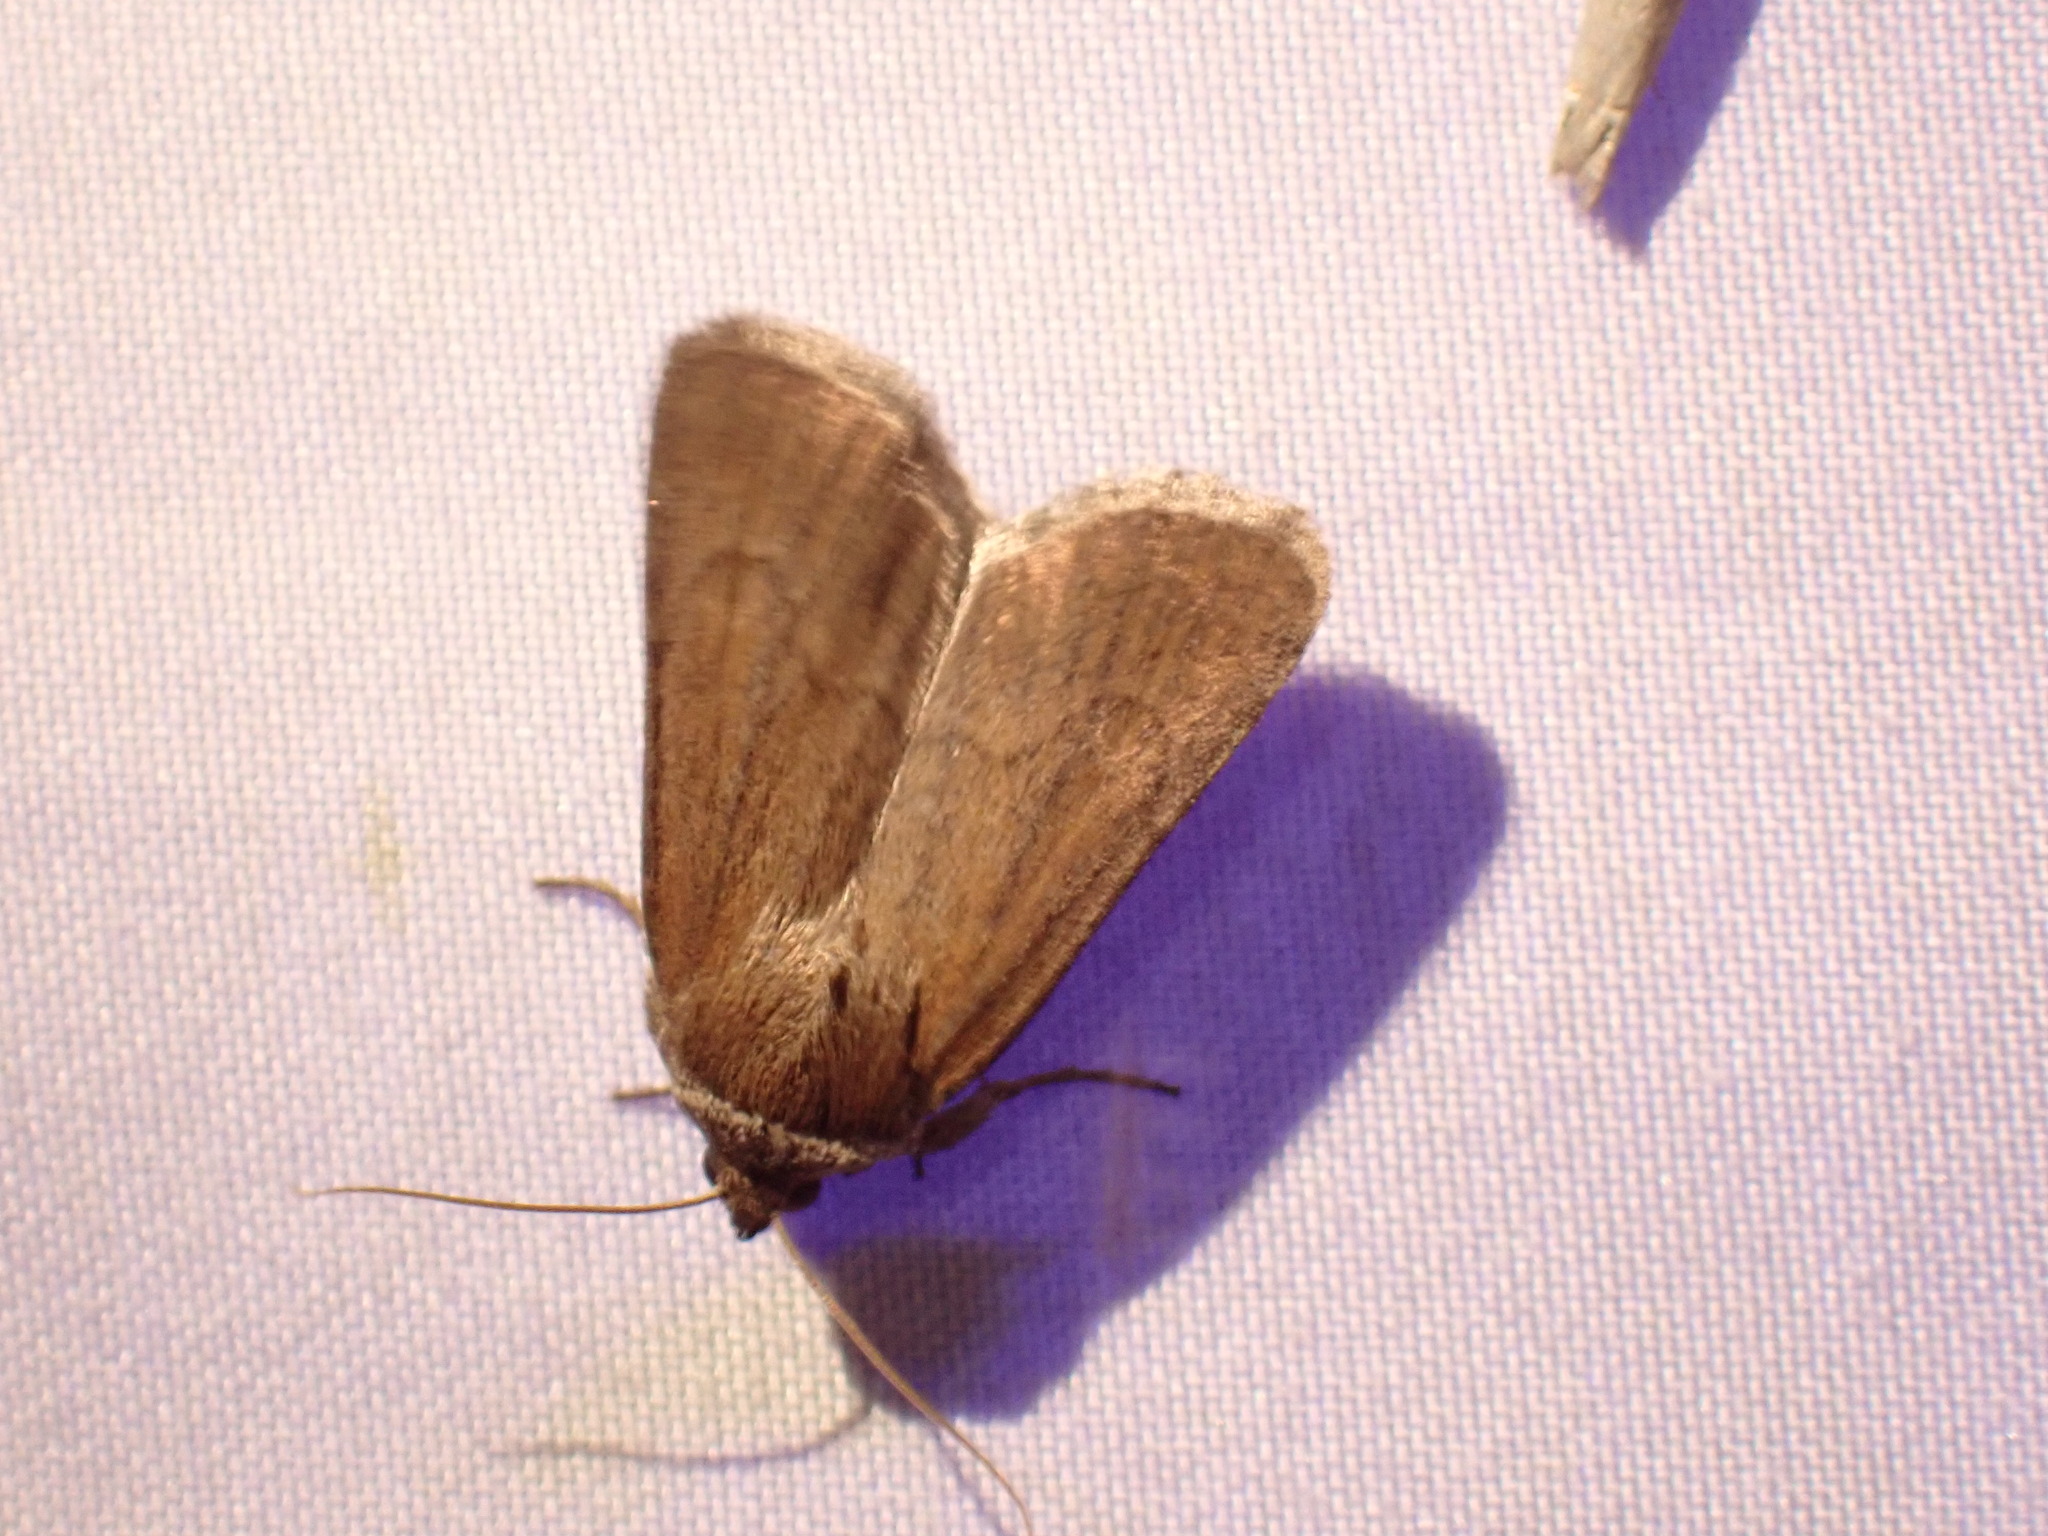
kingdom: Animalia
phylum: Arthropoda
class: Insecta
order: Lepidoptera
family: Noctuidae
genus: Sympistis
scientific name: Sympistis stabilis
